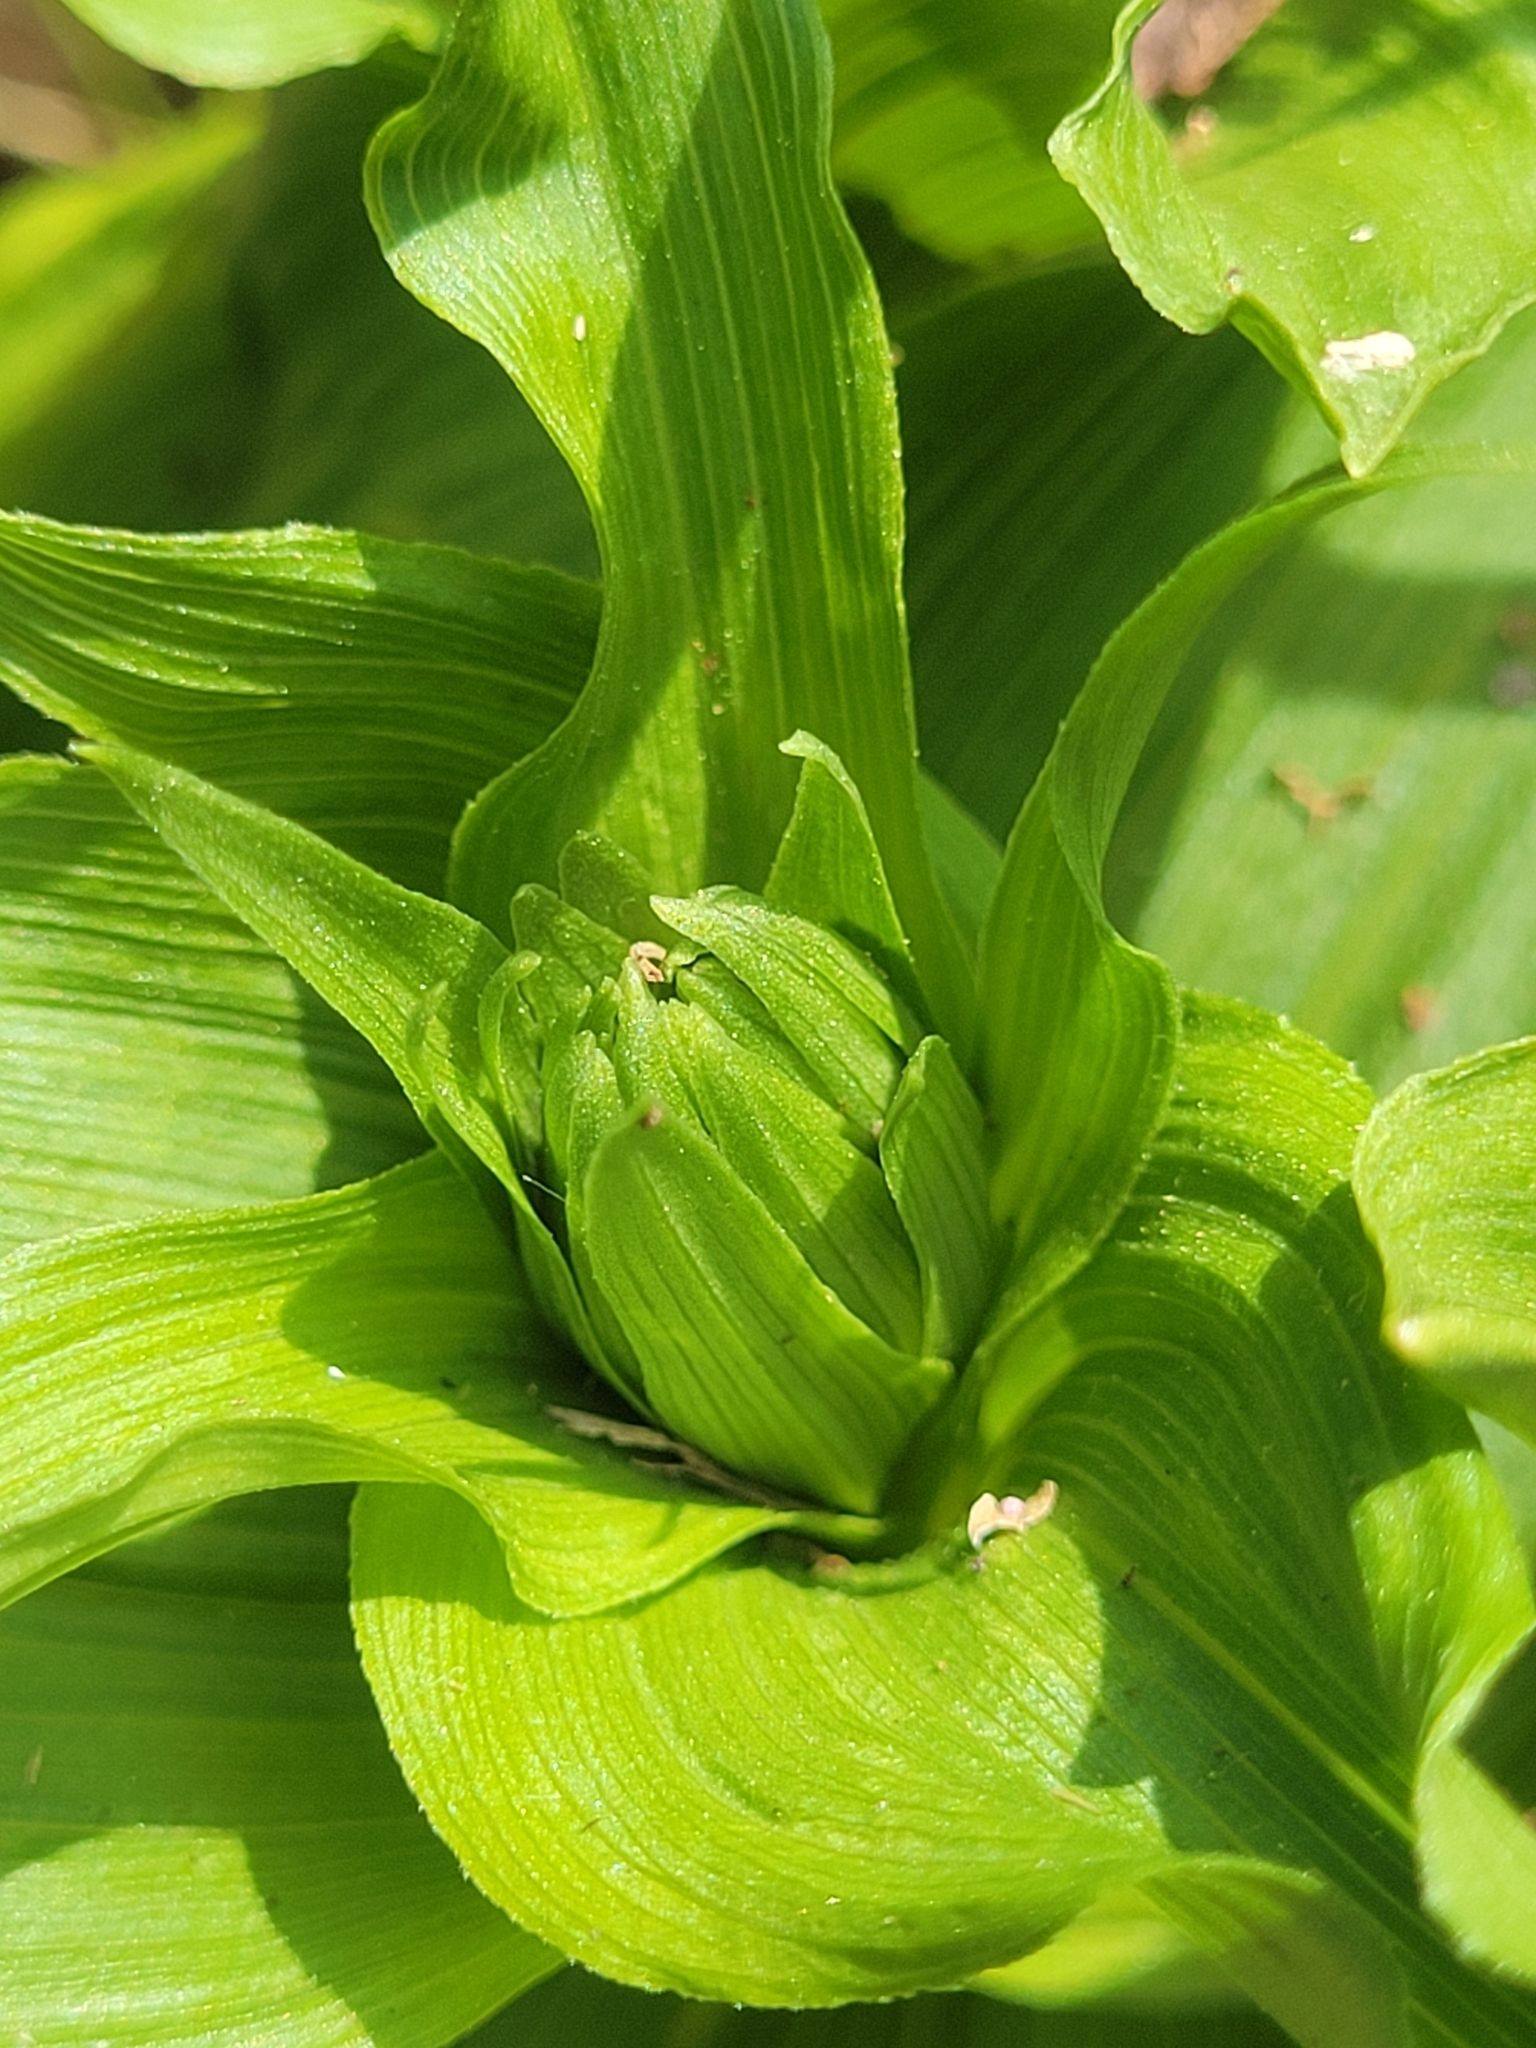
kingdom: Plantae
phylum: Tracheophyta
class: Liliopsida
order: Asparagales
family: Orchidaceae
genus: Epipactis
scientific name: Epipactis helleborine
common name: Broad-leaved helleborine
